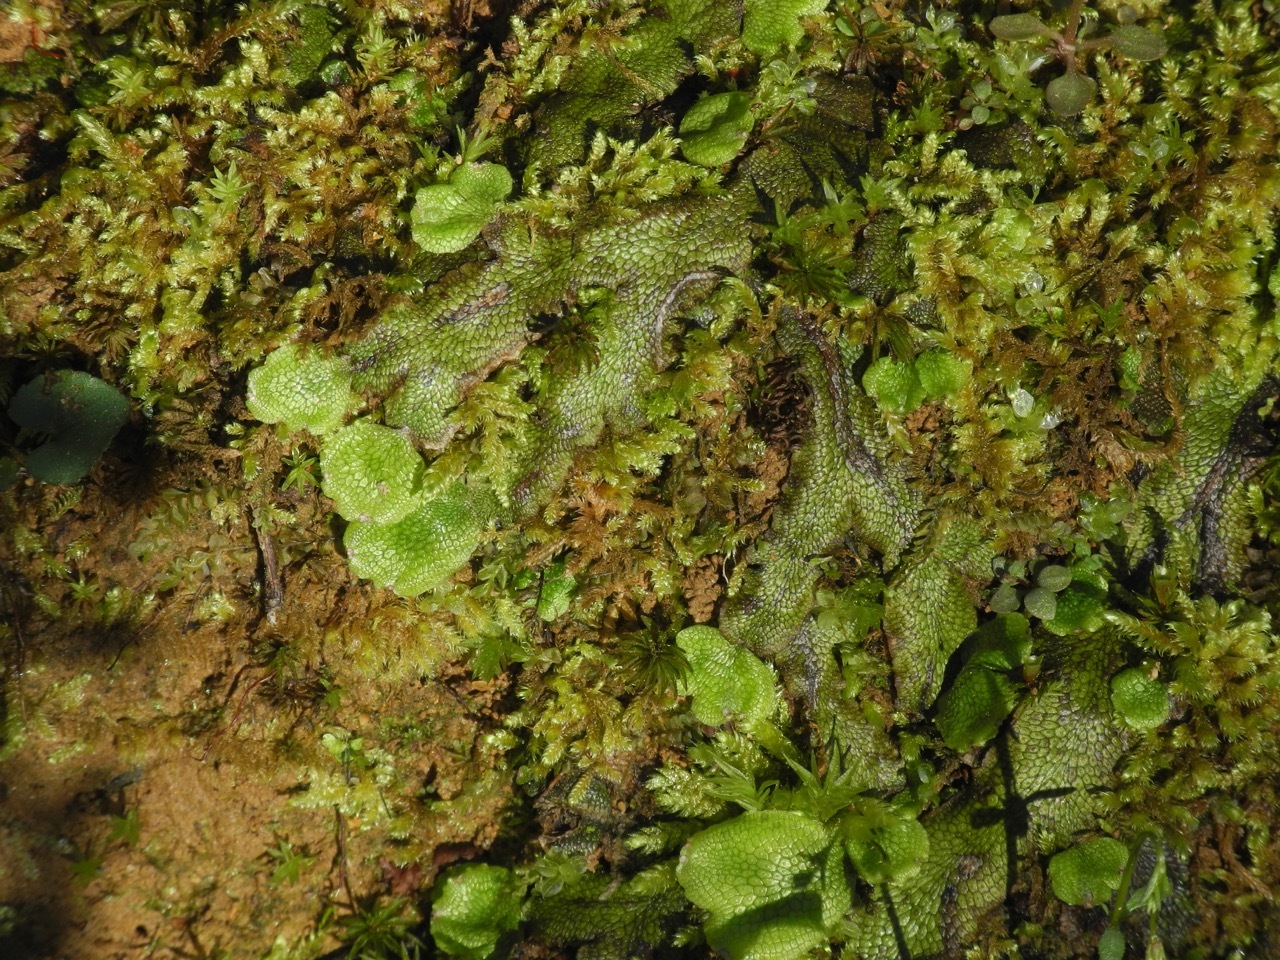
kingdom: Plantae
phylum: Marchantiophyta
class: Marchantiopsida
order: Marchantiales
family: Conocephalaceae
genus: Conocephalum
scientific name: Conocephalum salebrosum
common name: Cat-tongue liverwort
